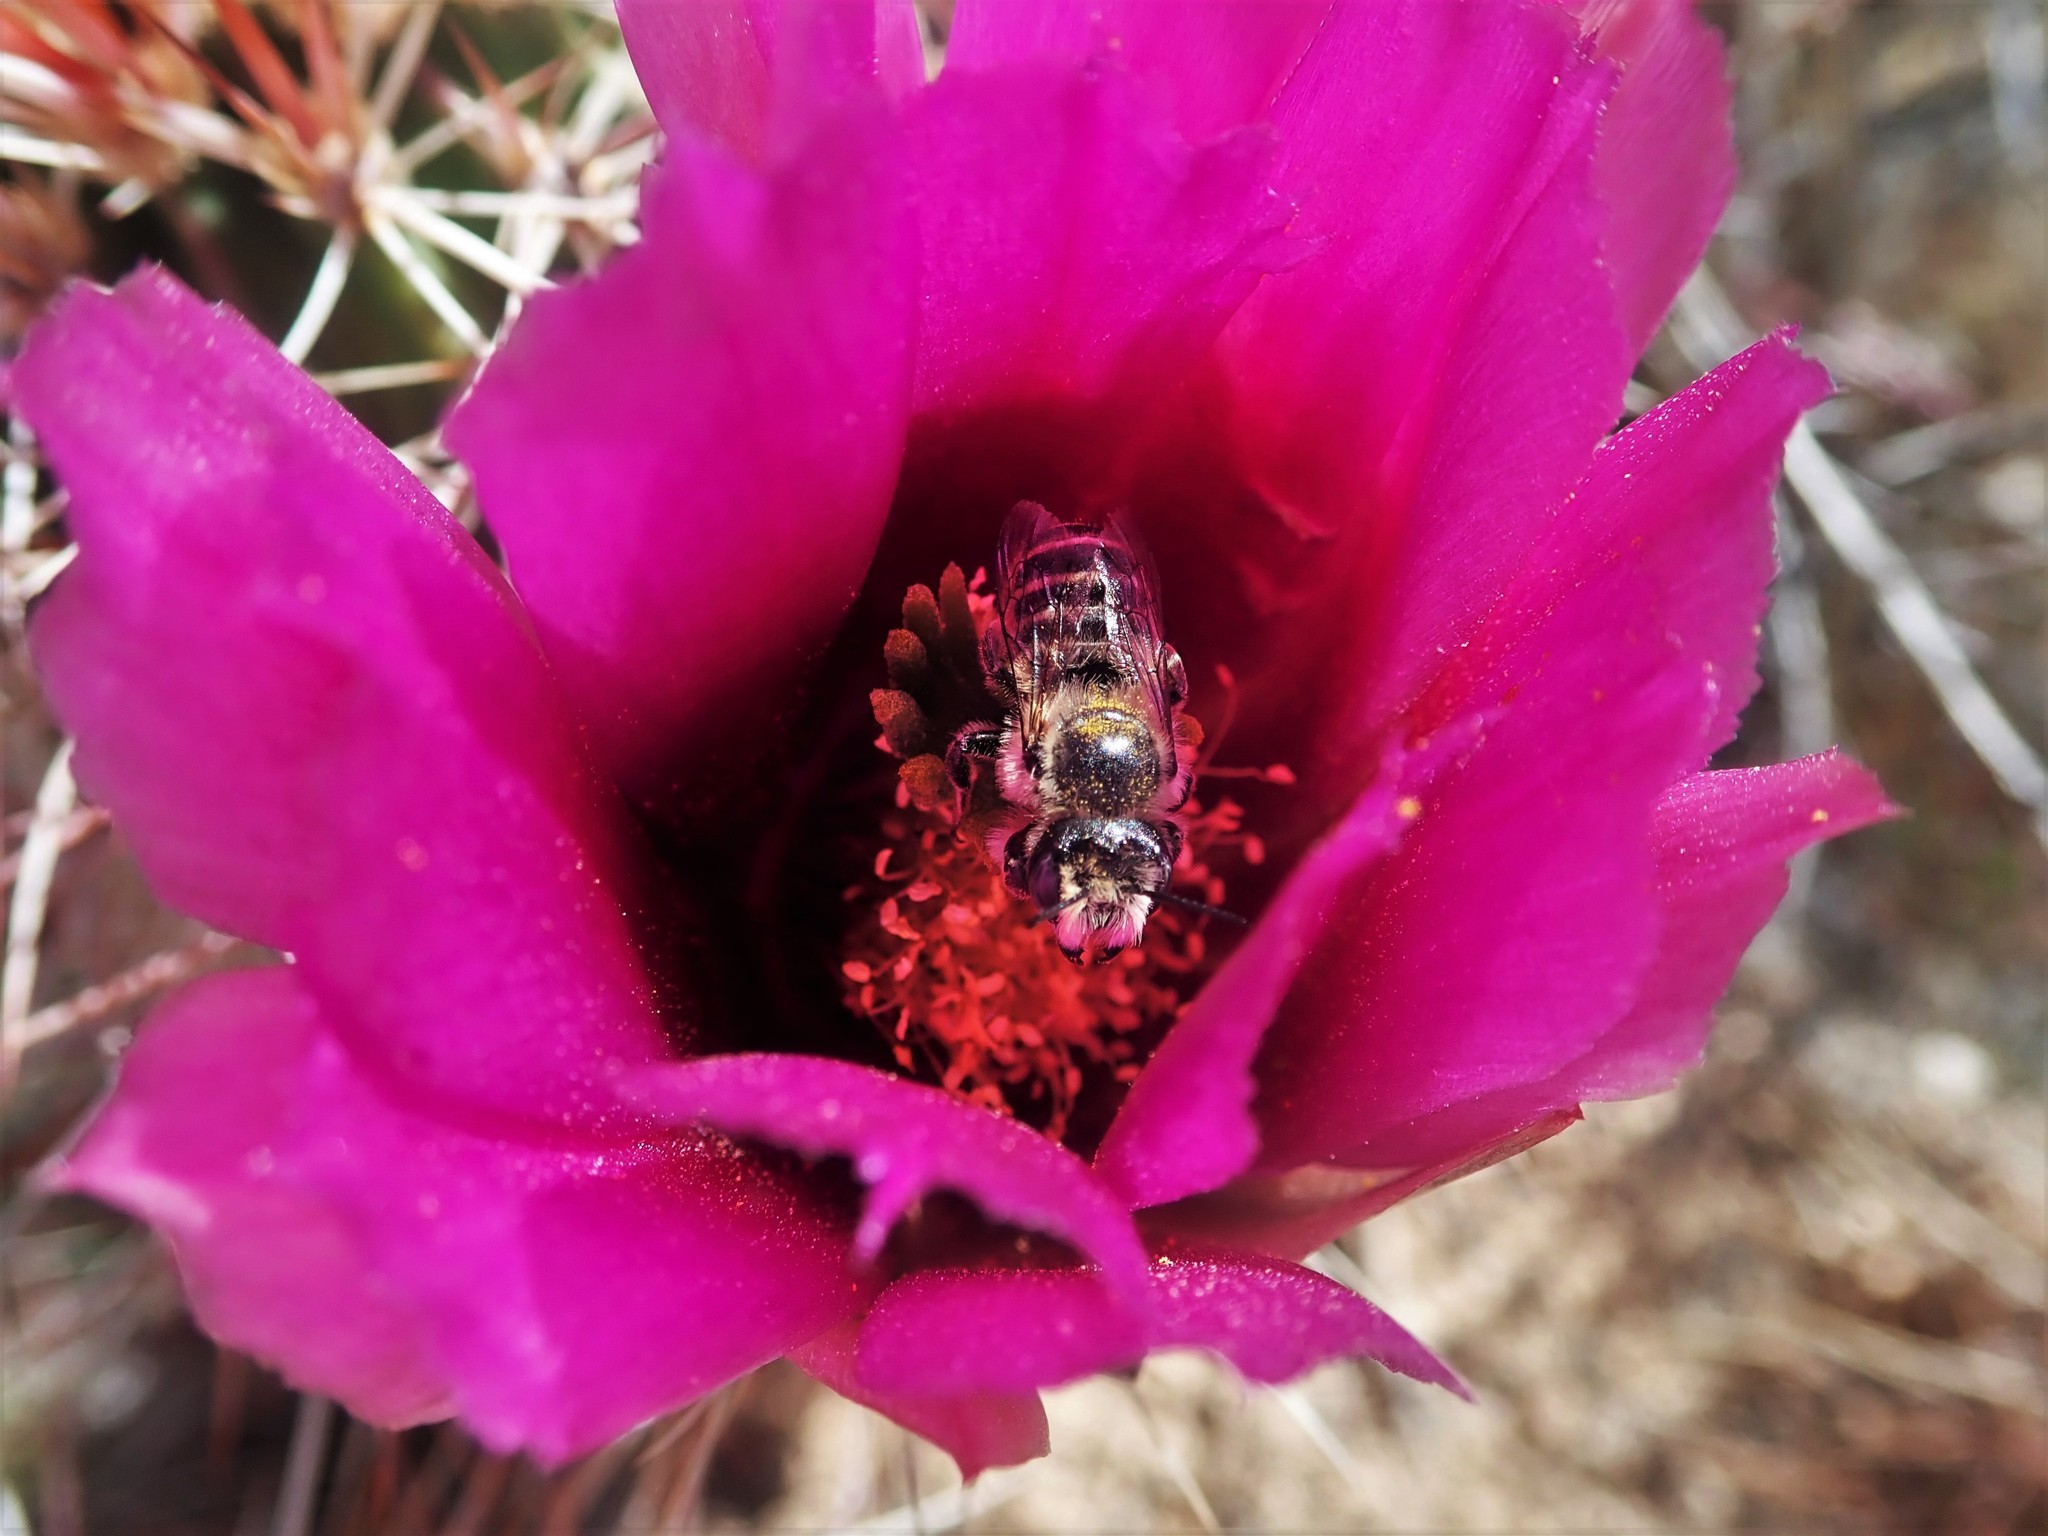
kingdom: Plantae
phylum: Tracheophyta
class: Magnoliopsida
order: Caryophyllales
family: Cactaceae
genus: Echinocereus
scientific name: Echinocereus relictus
